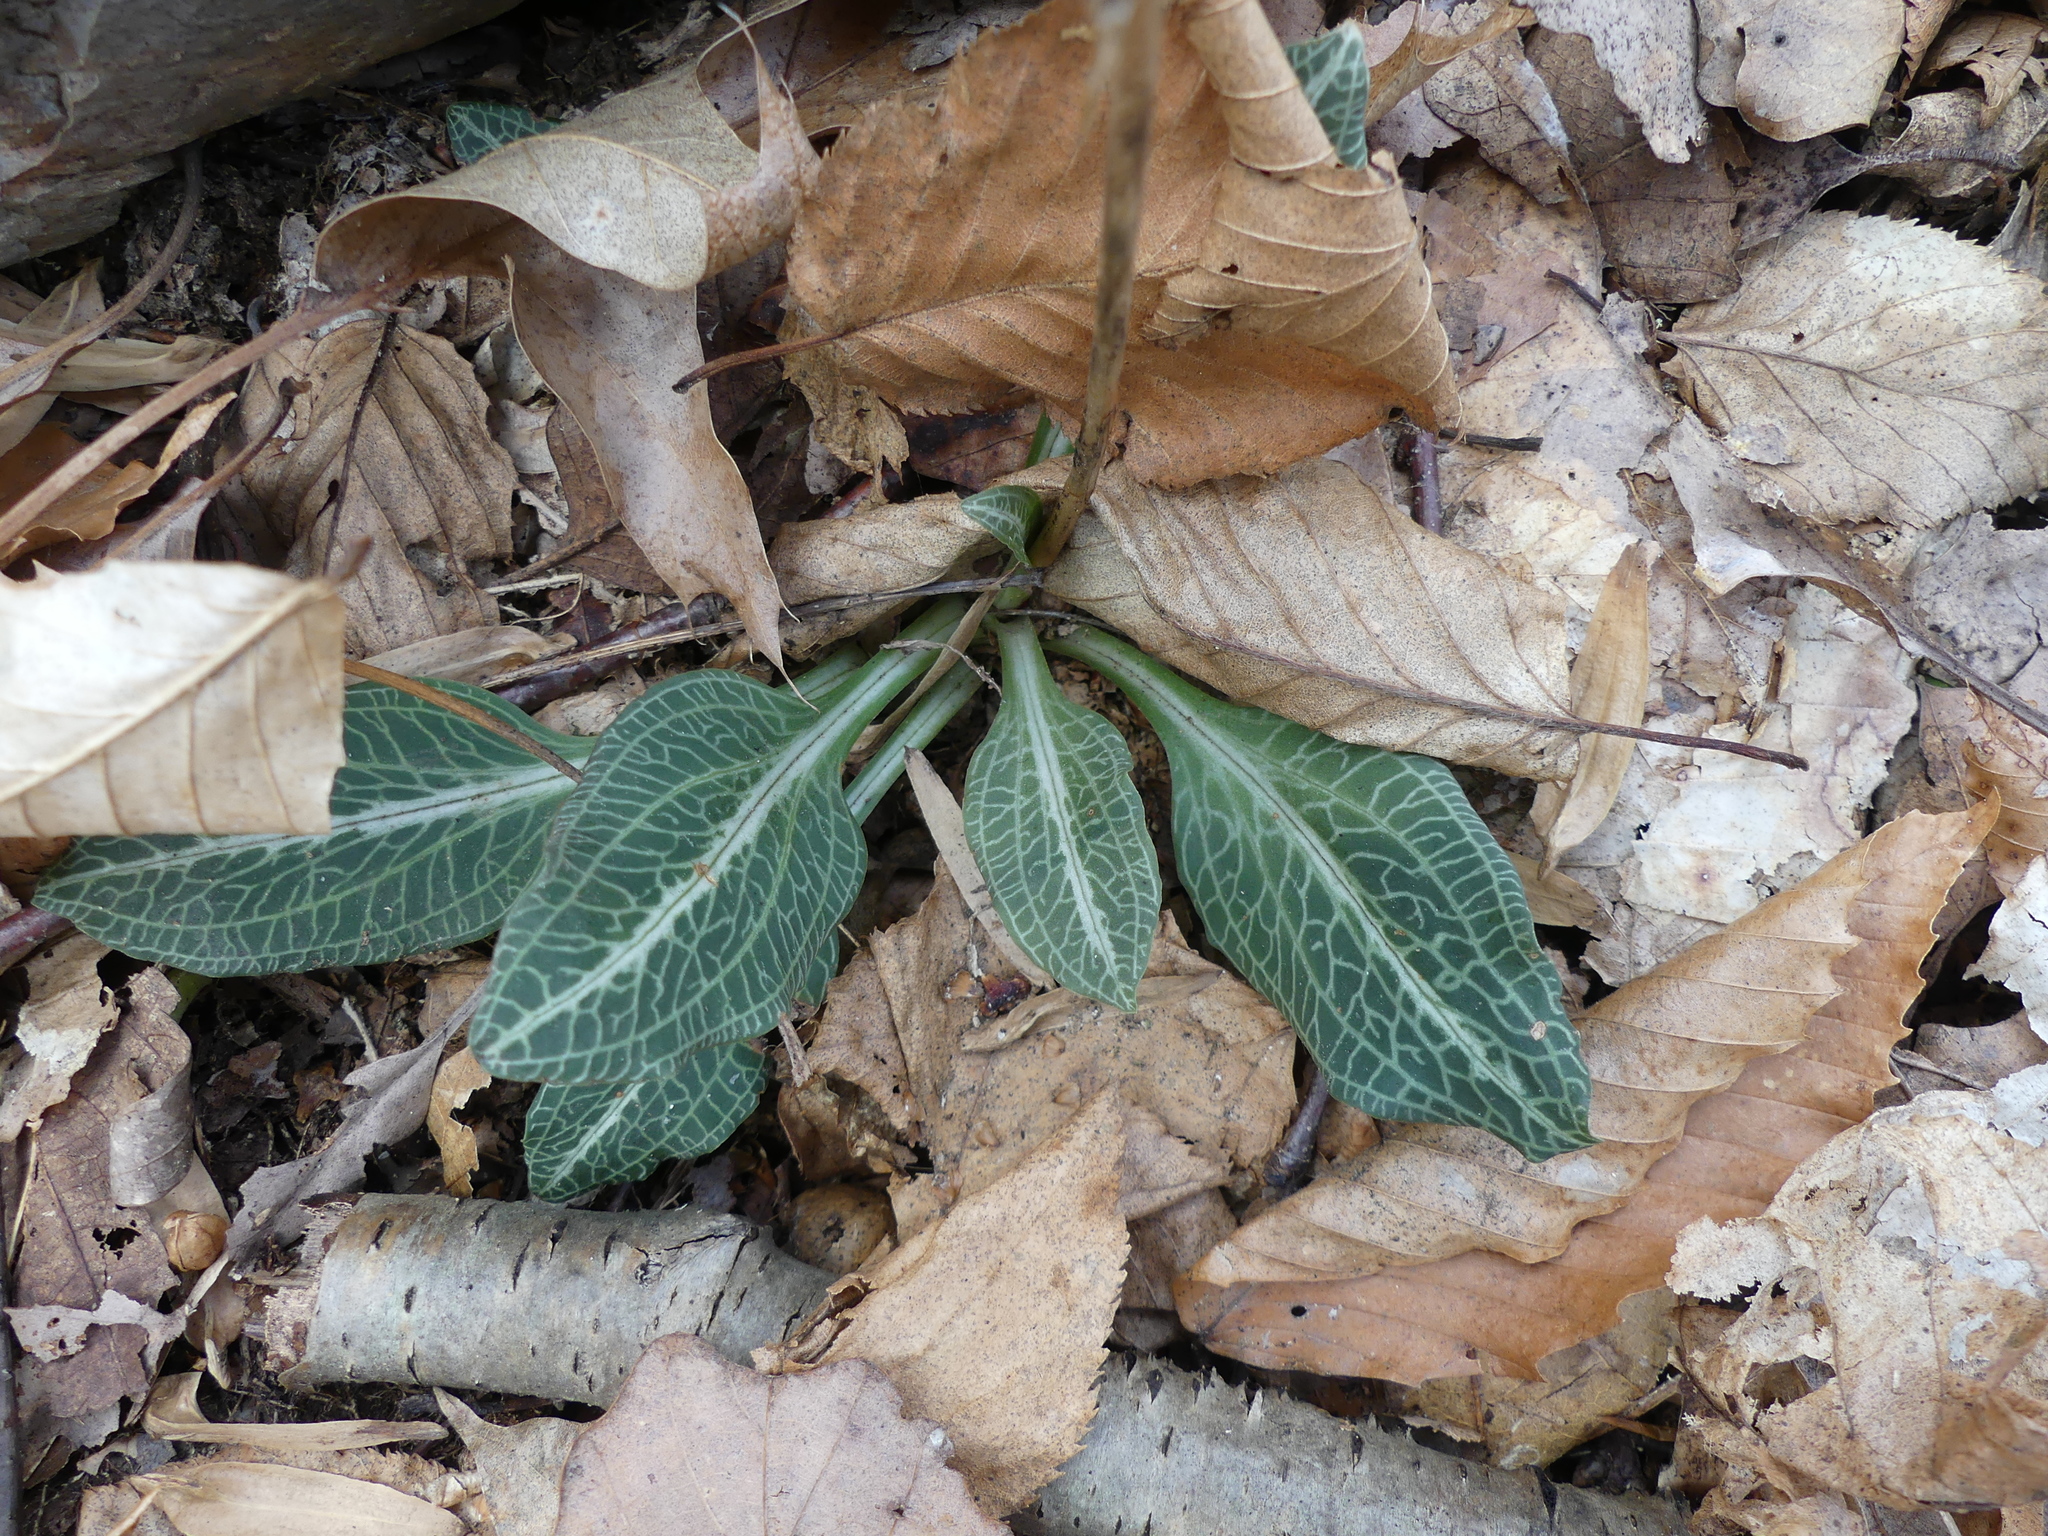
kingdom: Plantae
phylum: Tracheophyta
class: Liliopsida
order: Asparagales
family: Orchidaceae
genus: Goodyera
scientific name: Goodyera pubescens
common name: Downy rattlesnake-plantain
